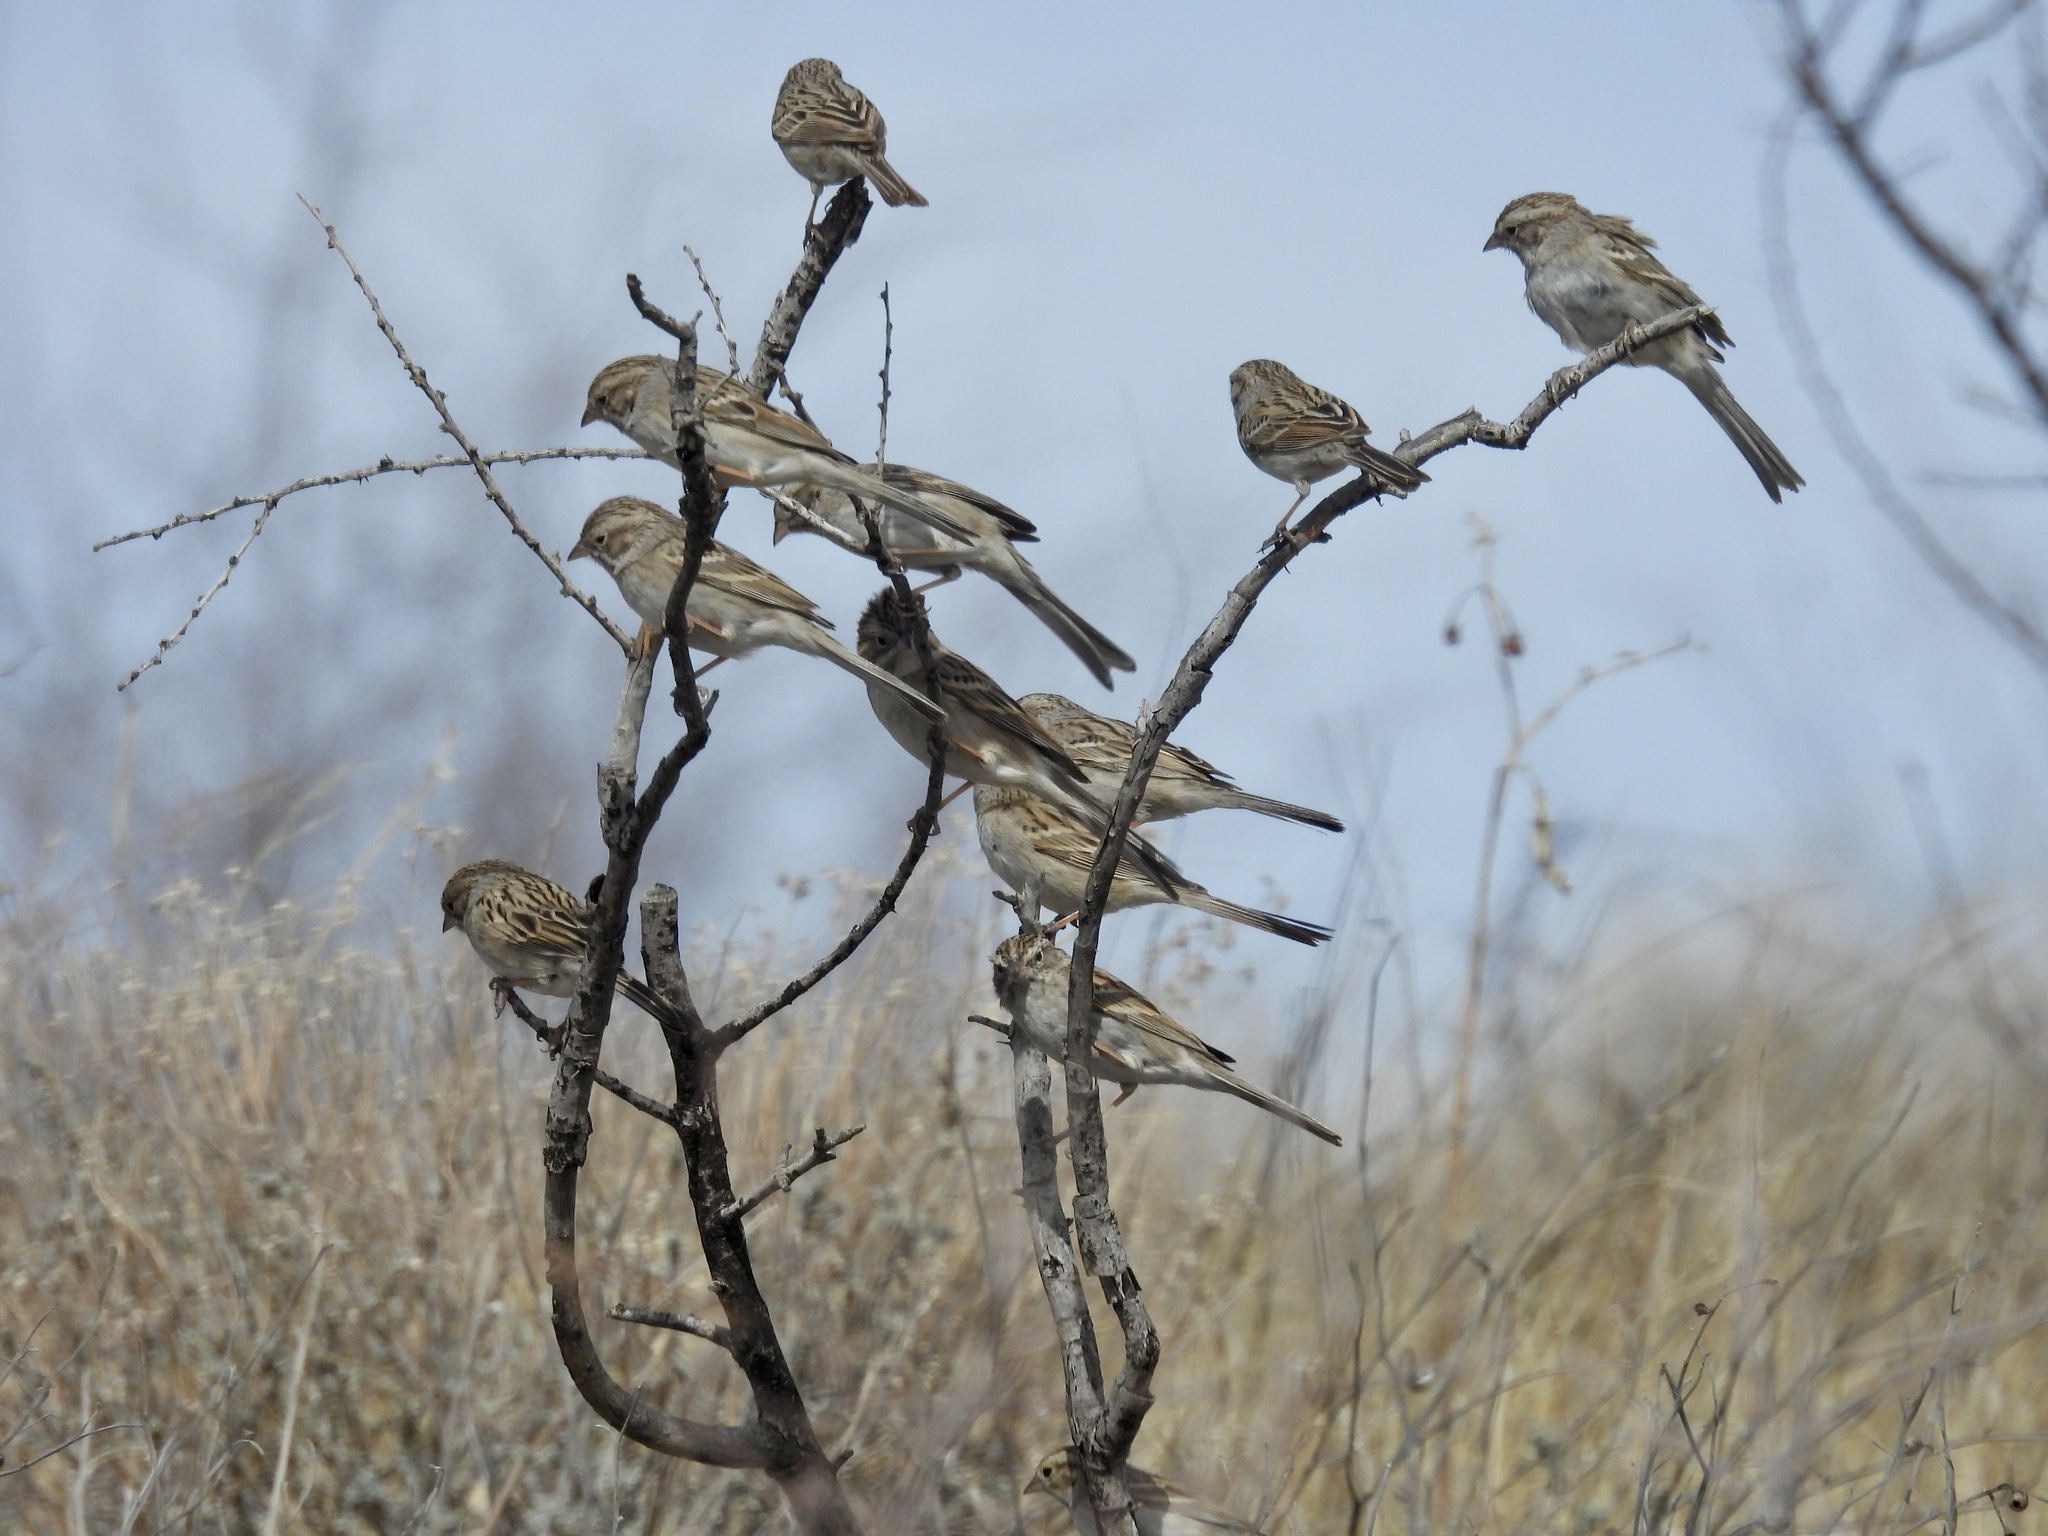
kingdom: Animalia
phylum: Chordata
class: Aves
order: Passeriformes
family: Passerellidae
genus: Spizella
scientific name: Spizella breweri
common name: Brewer's sparrow
